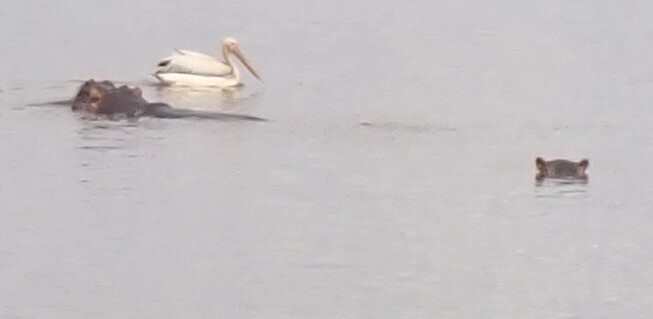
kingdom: Animalia
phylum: Chordata
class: Mammalia
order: Artiodactyla
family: Hippopotamidae
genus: Hippopotamus
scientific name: Hippopotamus amphibius
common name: Common hippopotamus
